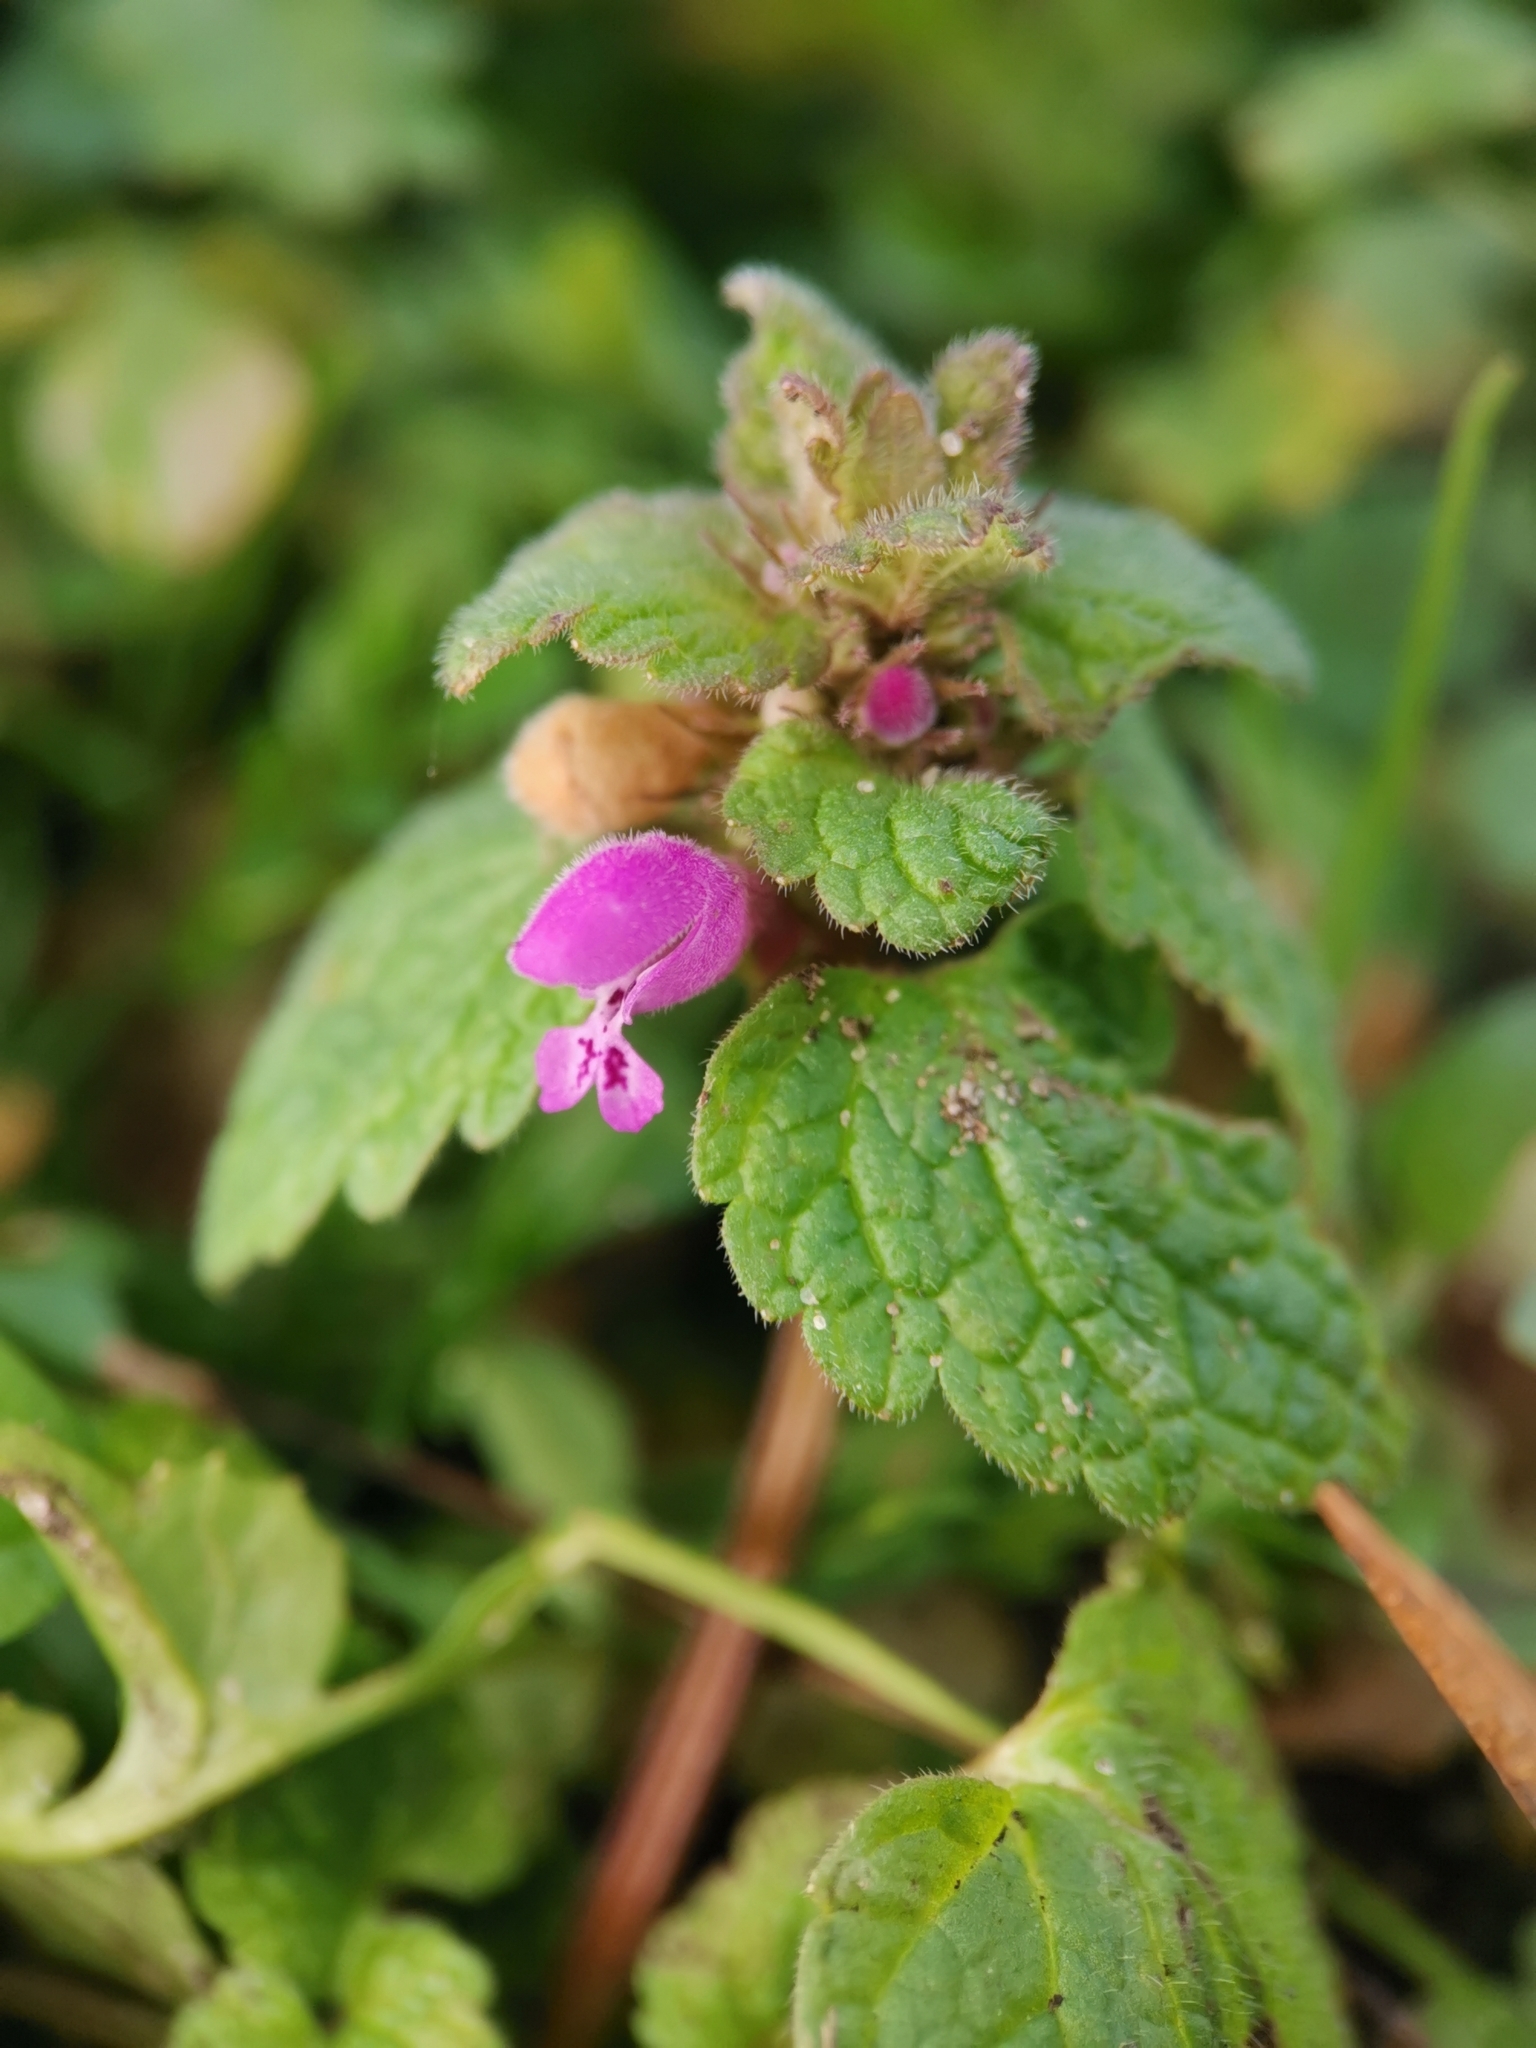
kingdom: Plantae
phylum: Tracheophyta
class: Magnoliopsida
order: Lamiales
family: Lamiaceae
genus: Lamium
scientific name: Lamium purpureum
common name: Red dead-nettle
